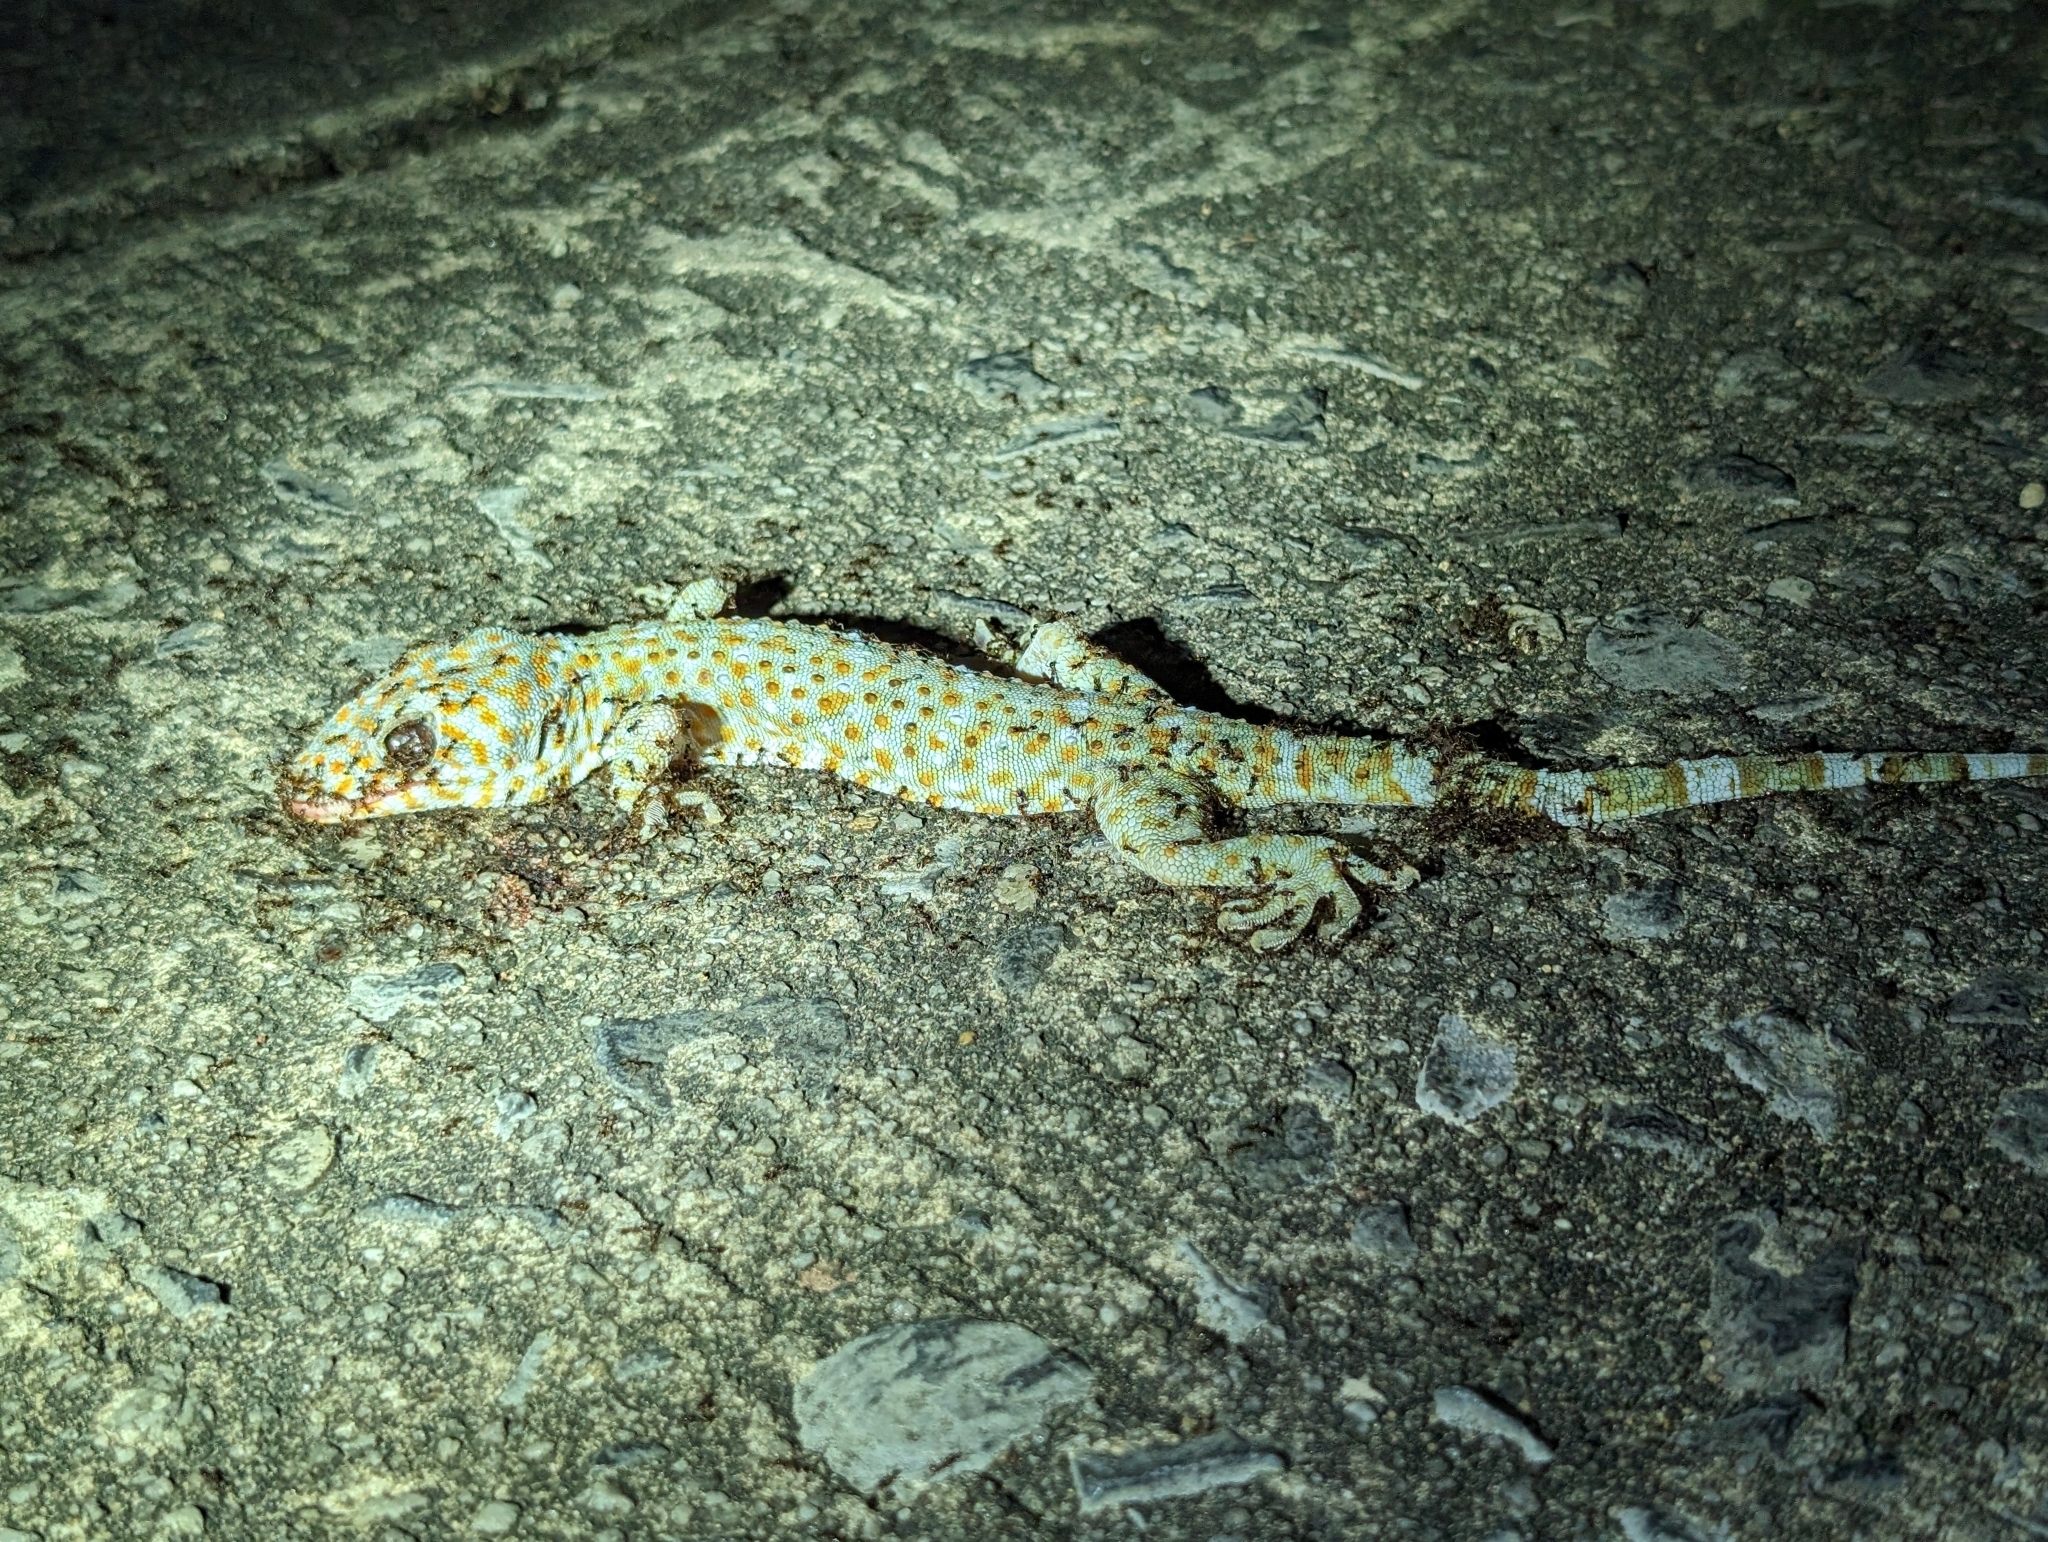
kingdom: Animalia
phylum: Chordata
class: Squamata
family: Gekkonidae
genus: Gekko
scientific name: Gekko gecko
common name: Tokay gecko
